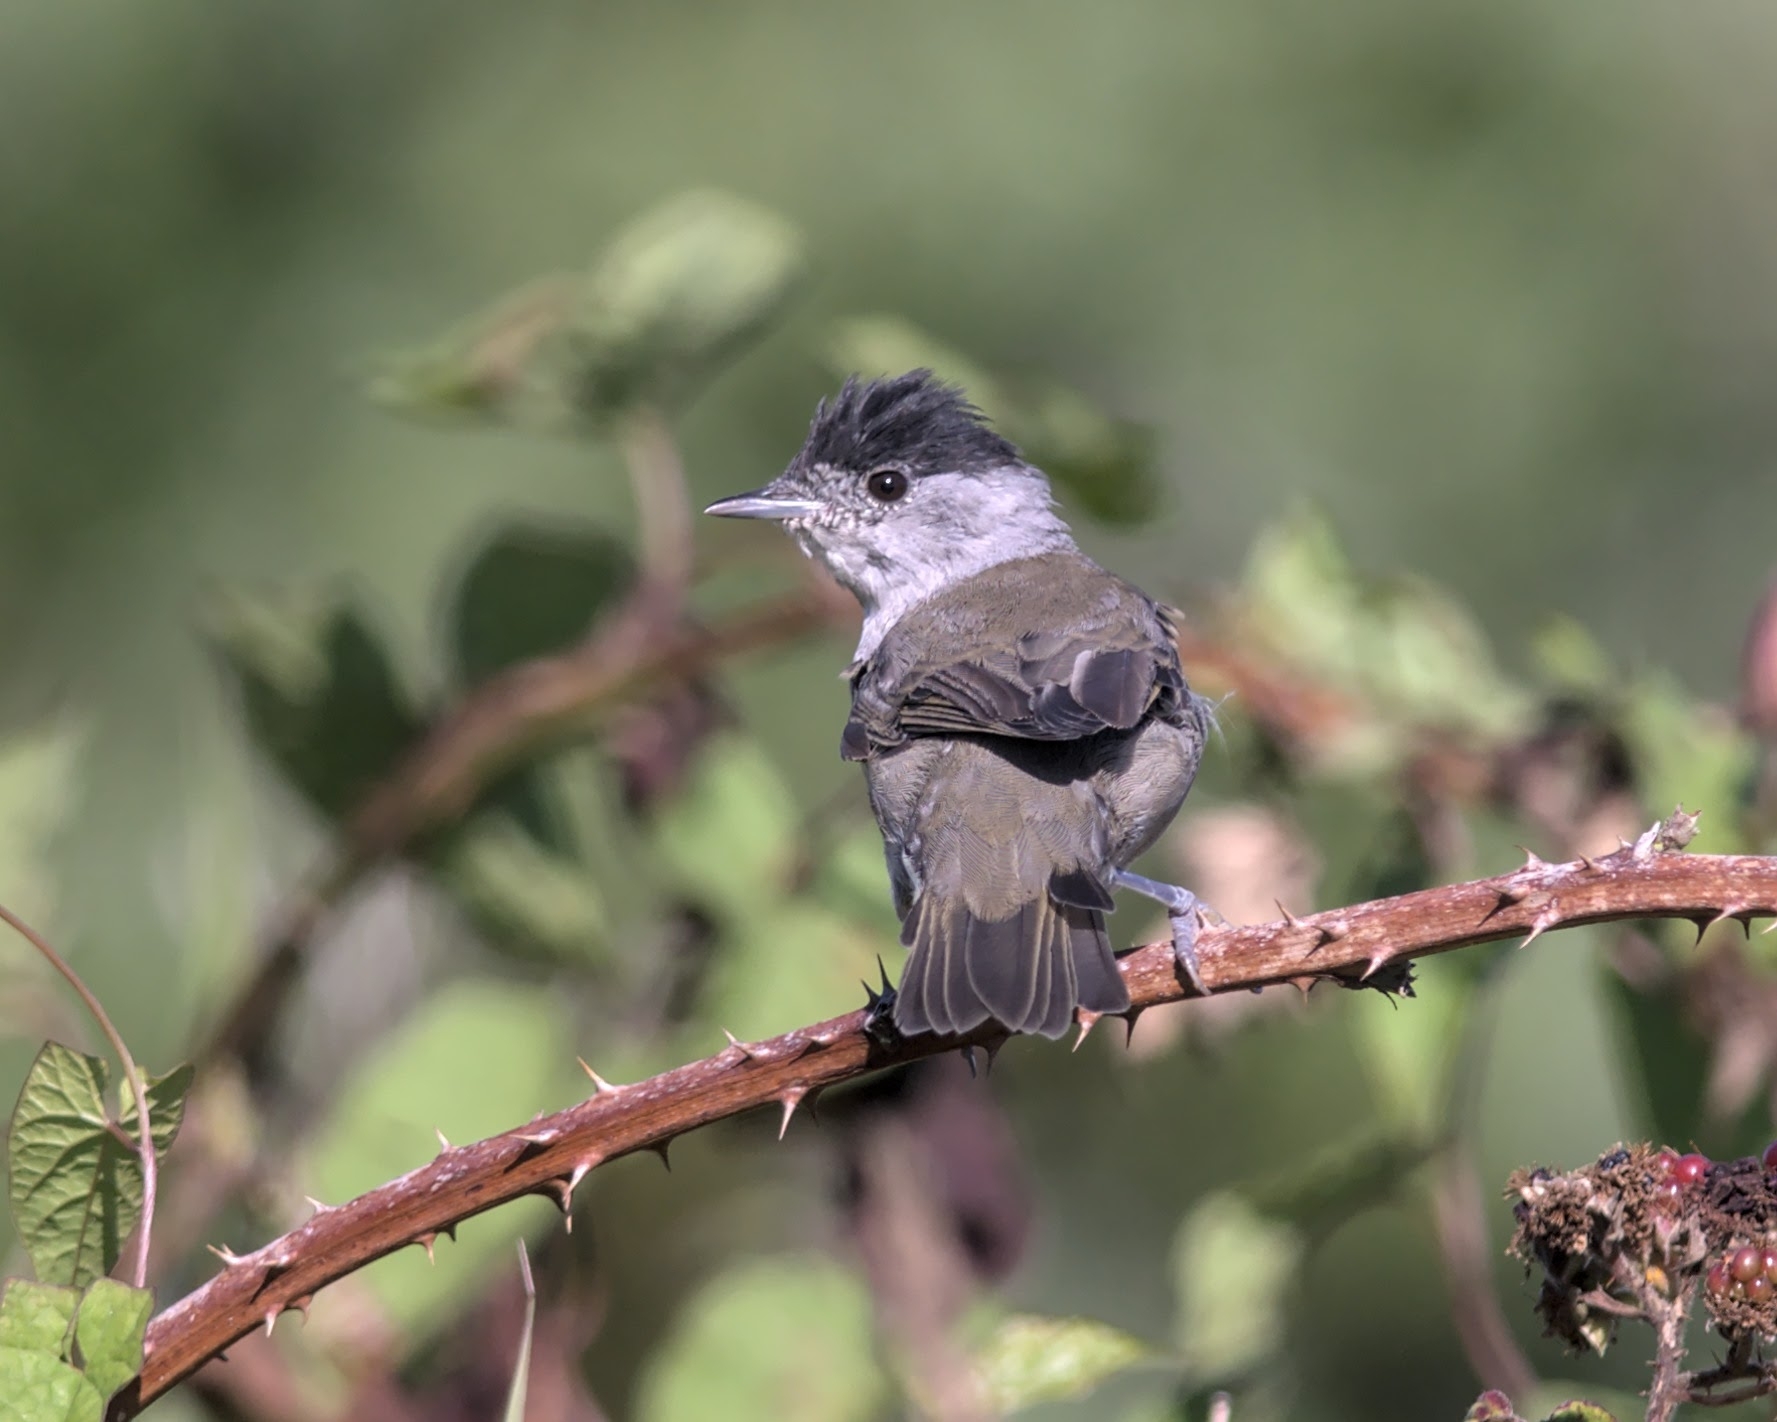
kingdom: Animalia
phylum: Chordata
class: Aves
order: Passeriformes
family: Sylviidae
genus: Sylvia
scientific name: Sylvia atricapilla
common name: Eurasian blackcap
